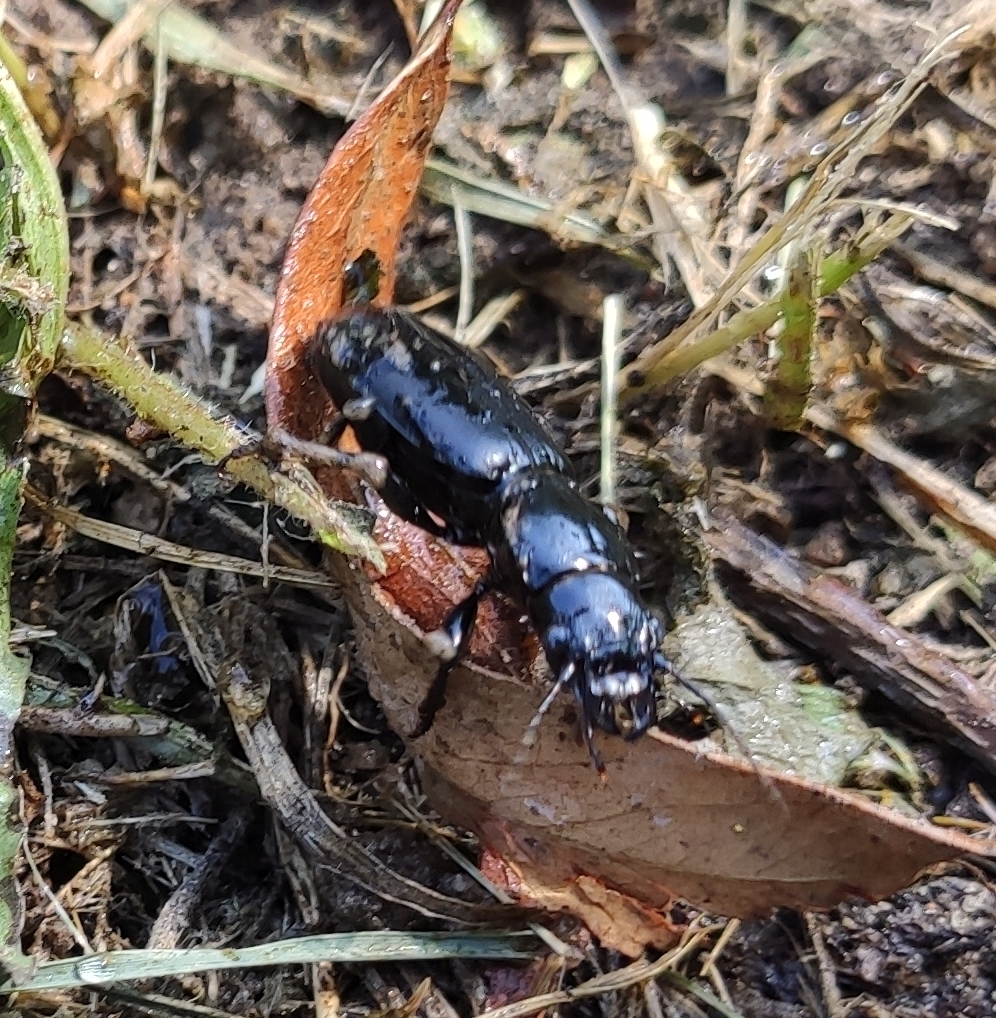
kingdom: Animalia
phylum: Arthropoda
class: Insecta
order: Coleoptera
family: Carabidae
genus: Broscus
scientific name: Broscus cephalotes
